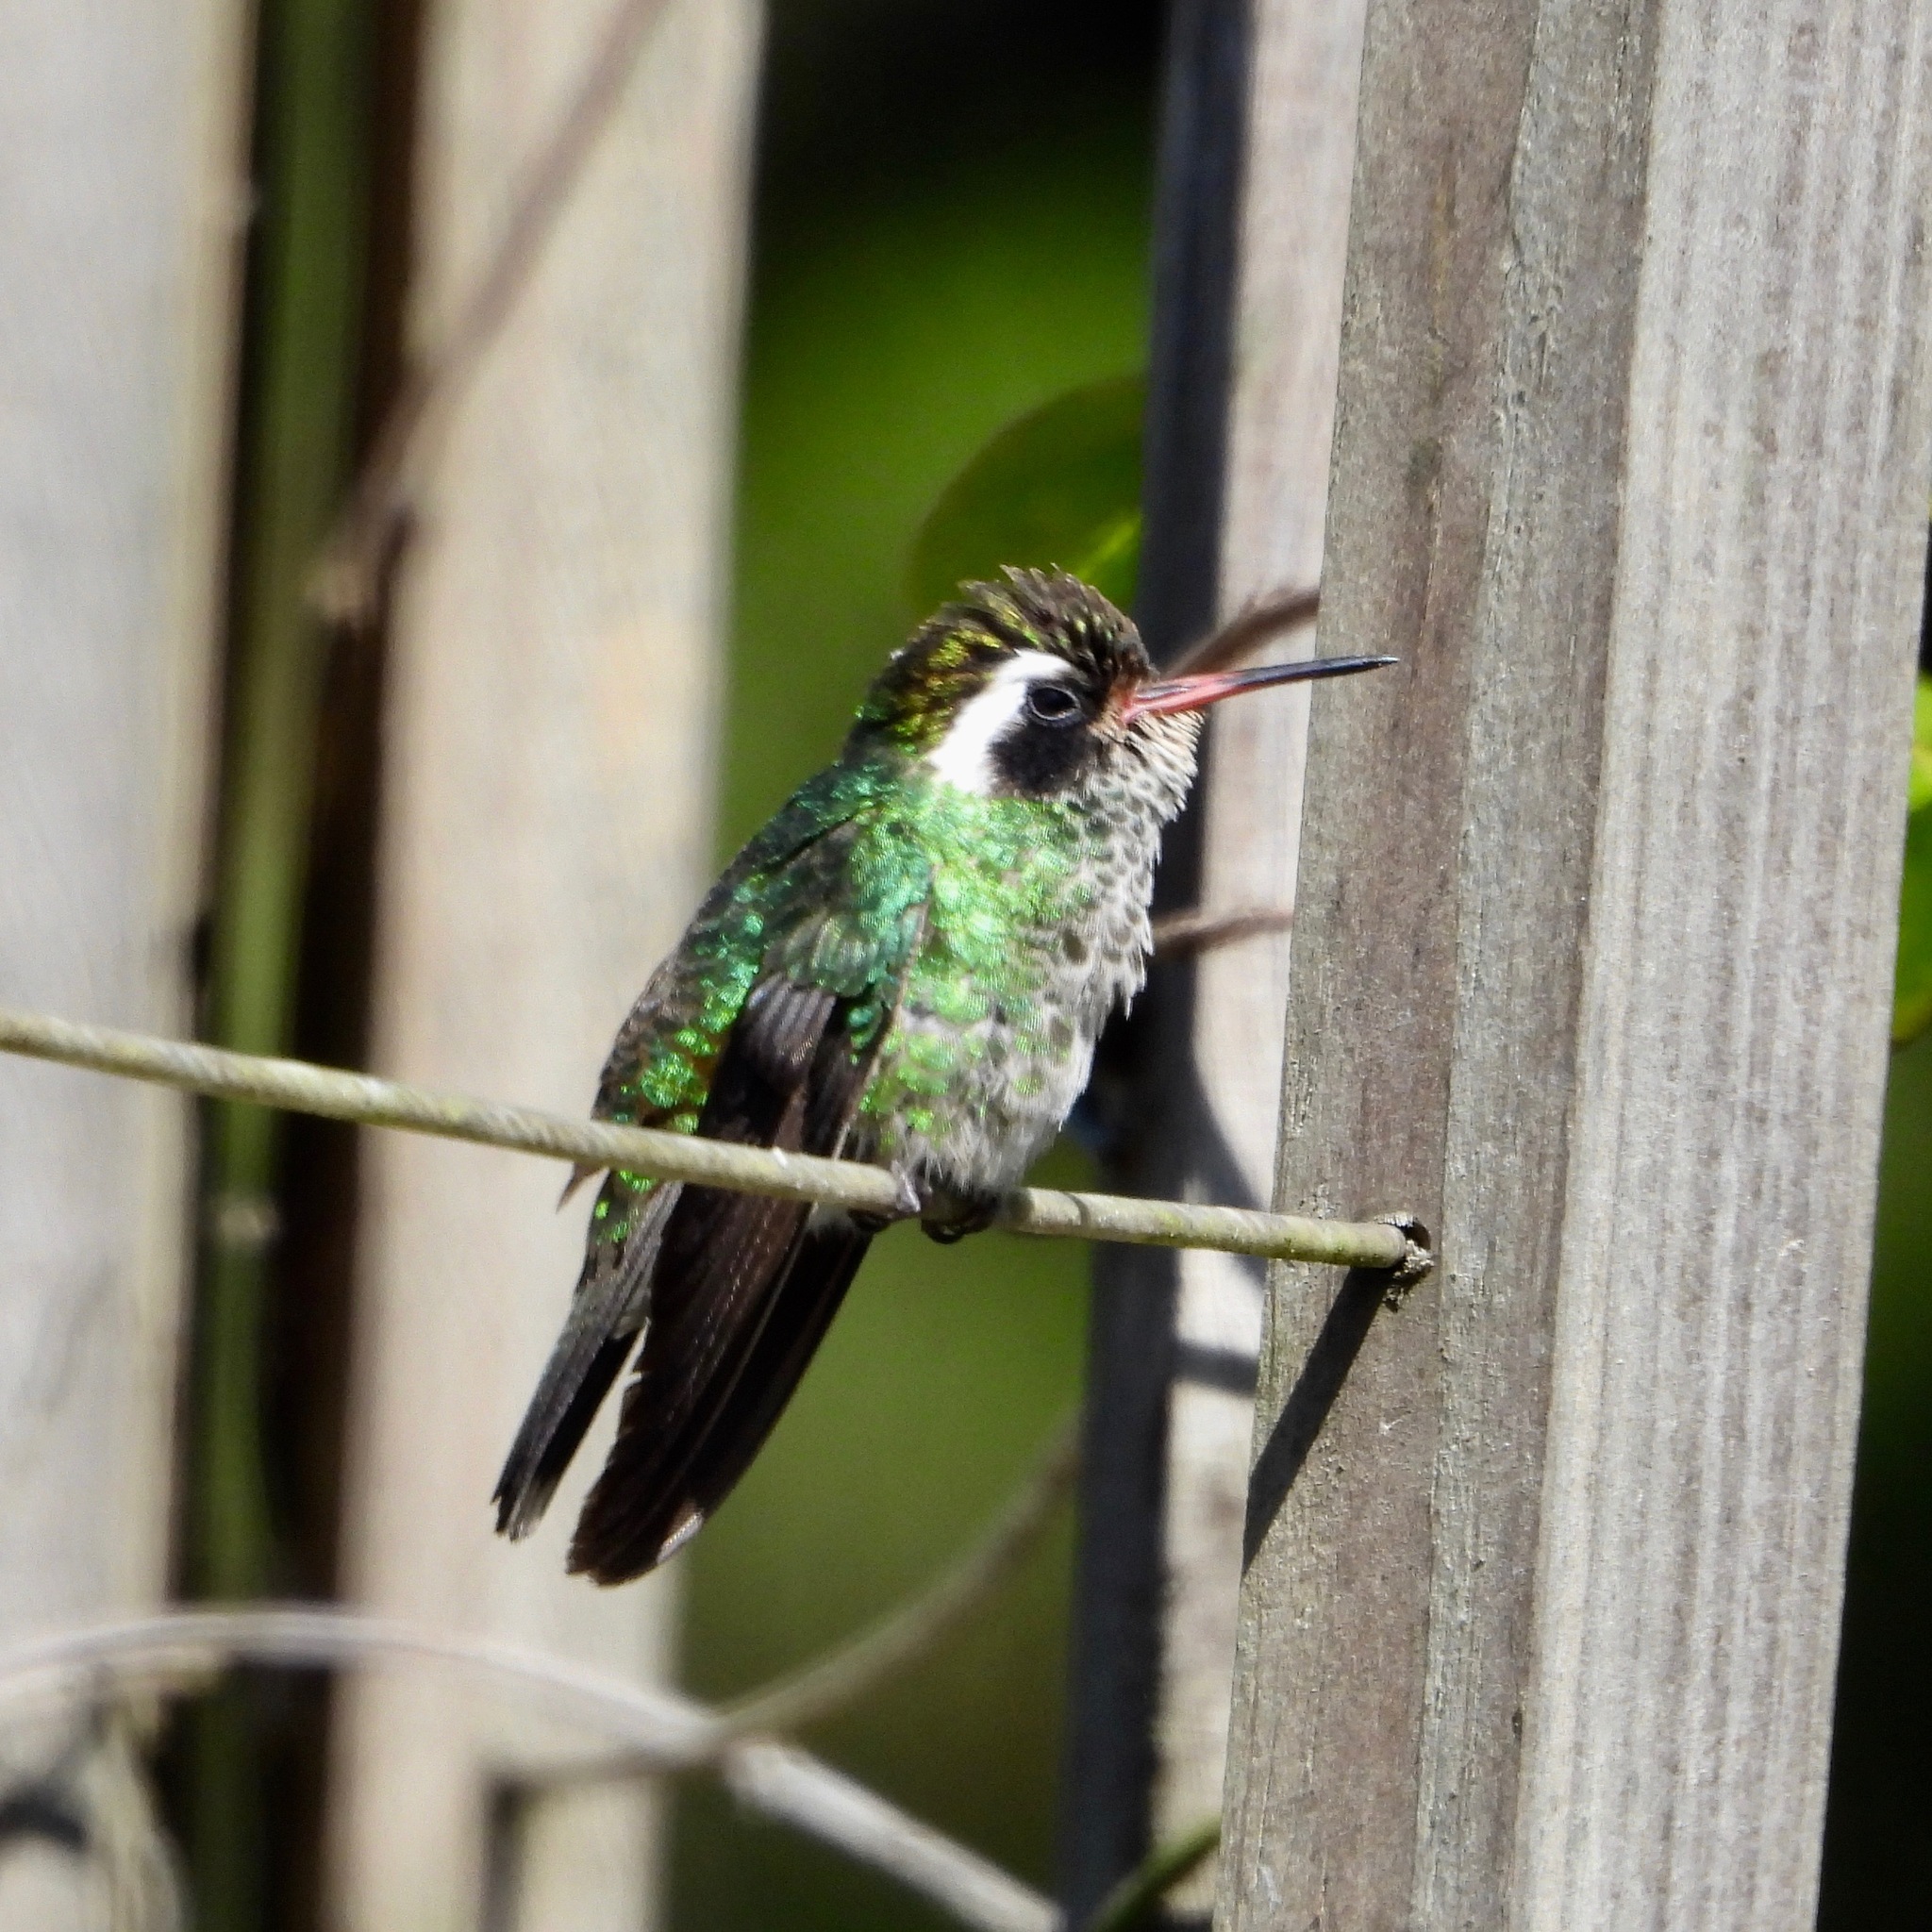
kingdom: Animalia
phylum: Chordata
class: Aves
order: Apodiformes
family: Trochilidae
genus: Basilinna
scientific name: Basilinna leucotis
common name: White-eared hummingbird
